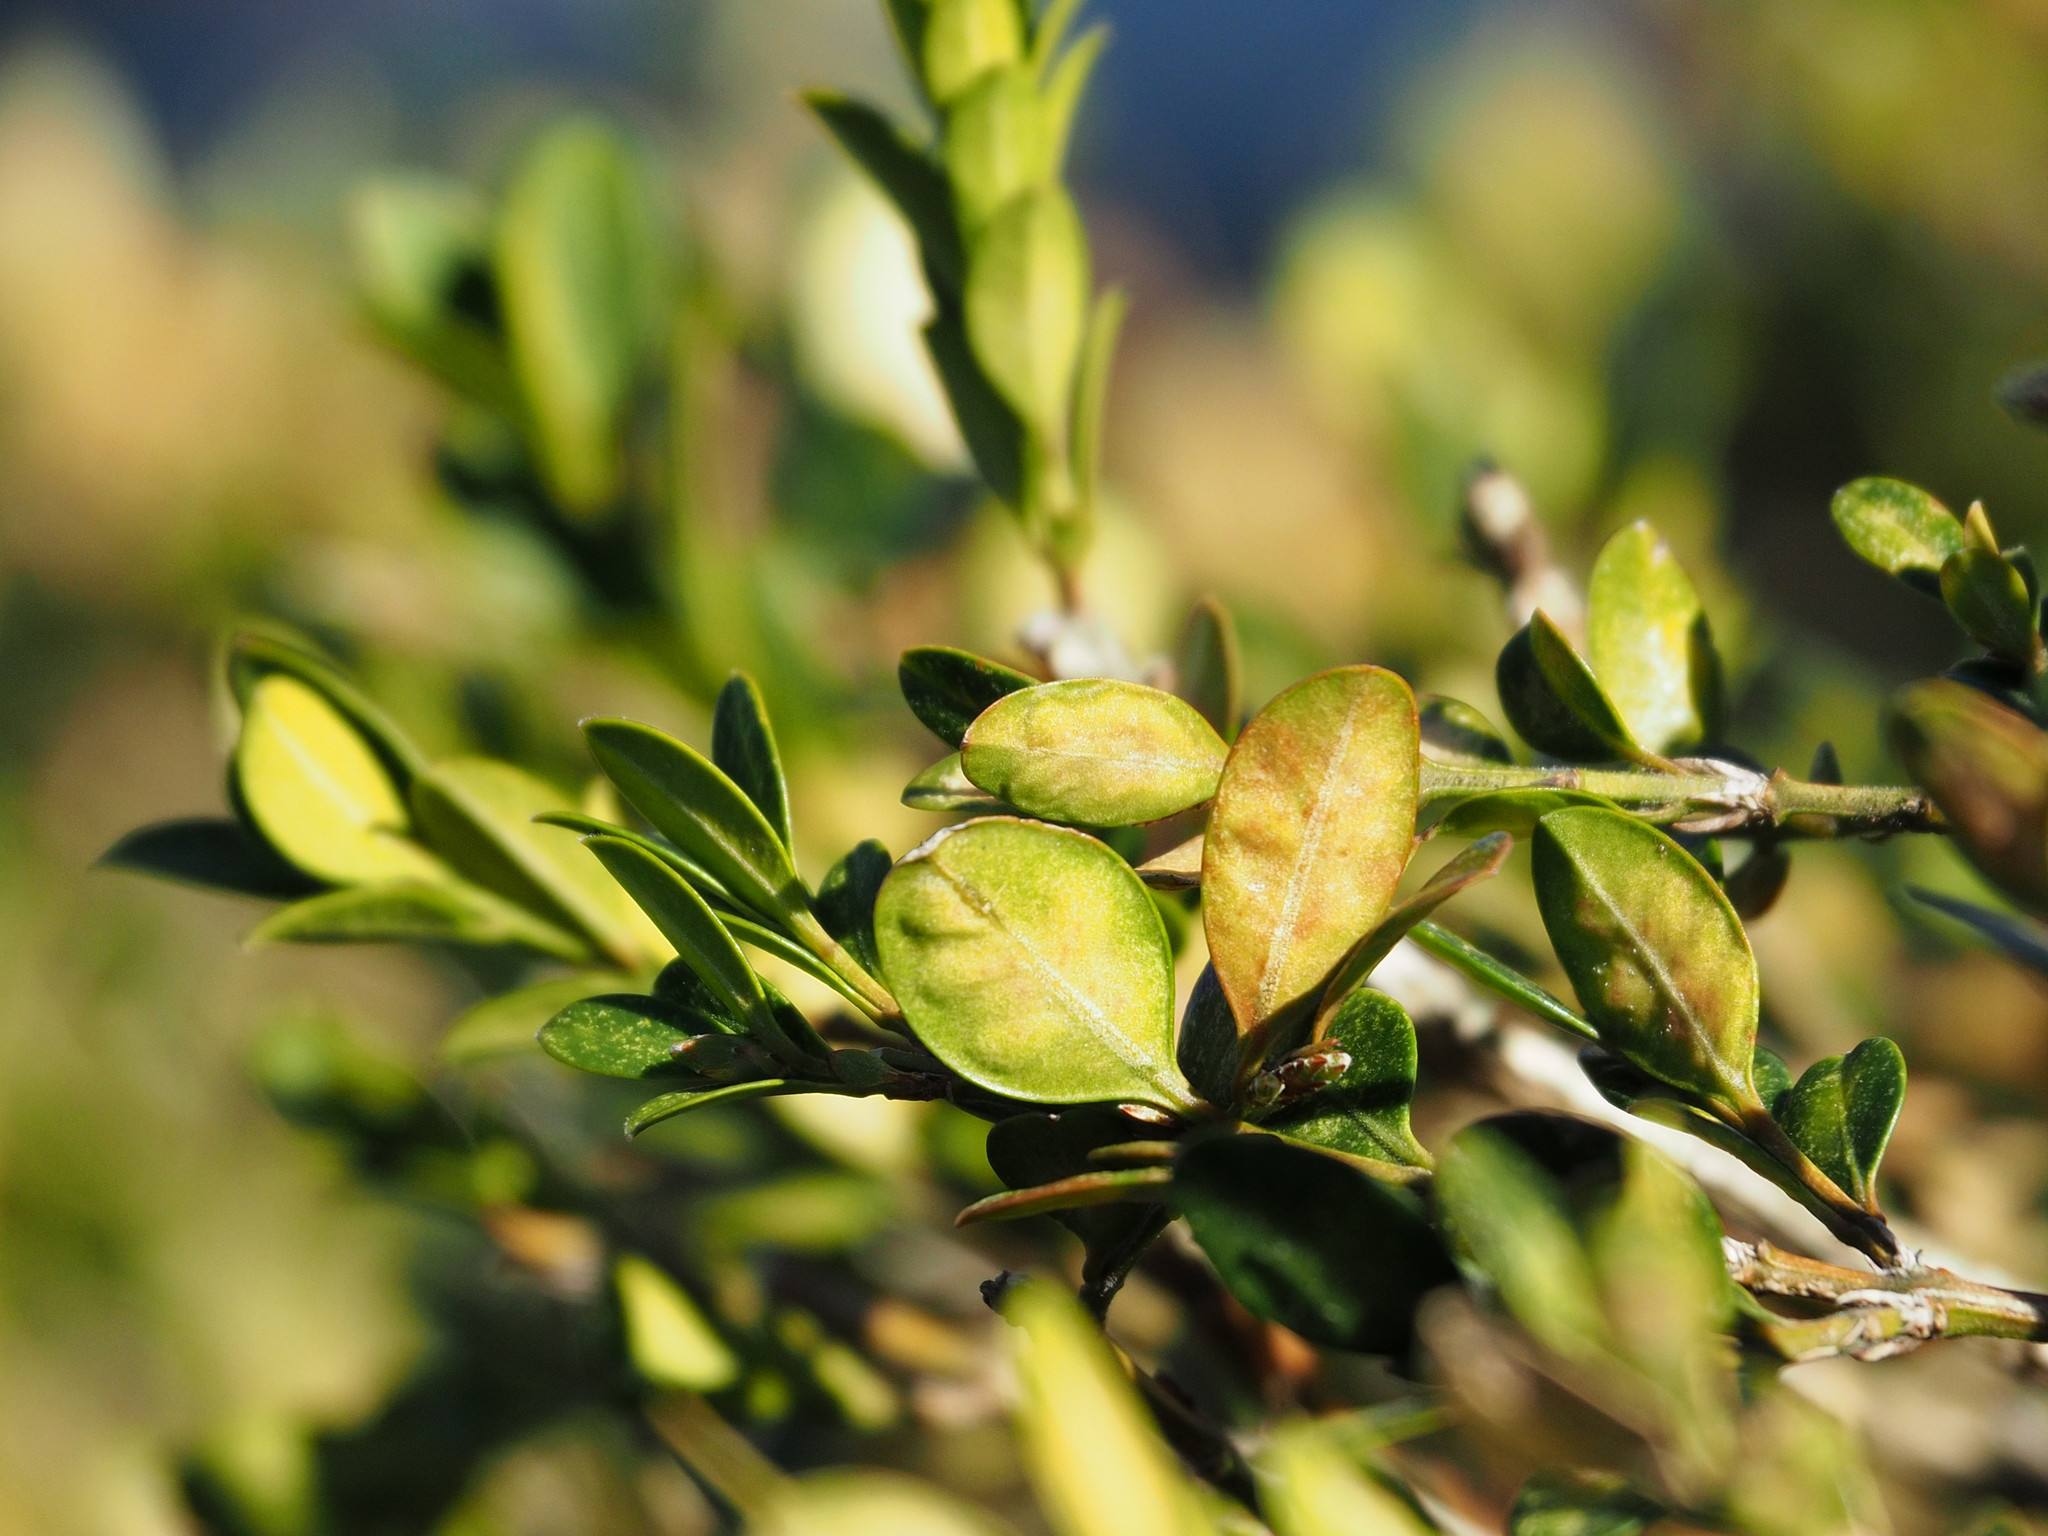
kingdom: Animalia
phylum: Arthropoda
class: Insecta
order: Diptera
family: Cecidomyiidae
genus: Monarthropalpus
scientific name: Monarthropalpus flavus
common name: Boxwood leafminer
